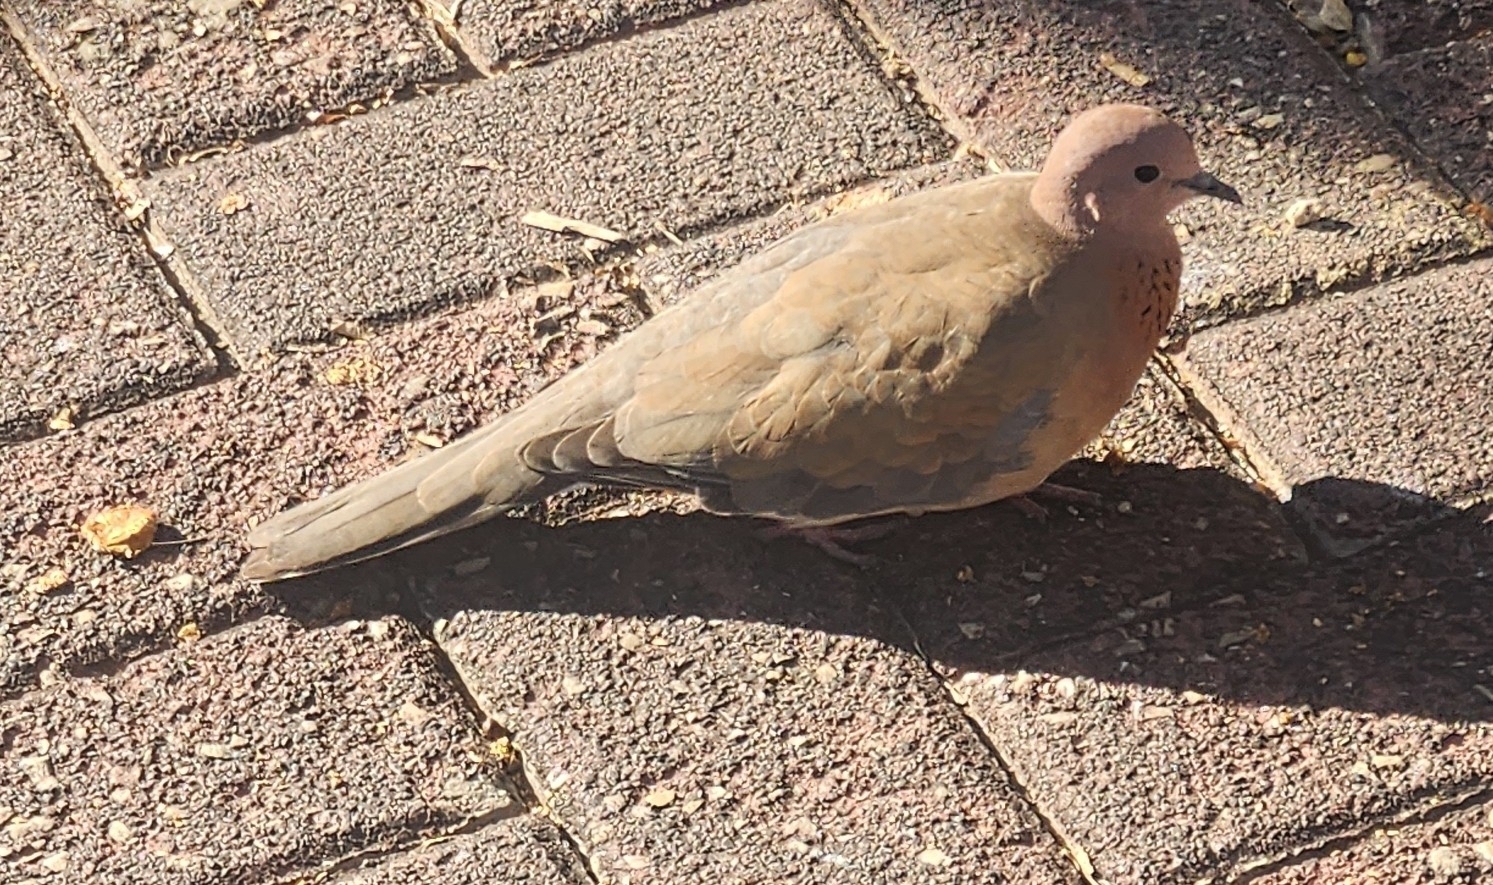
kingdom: Animalia
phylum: Chordata
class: Aves
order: Columbiformes
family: Columbidae
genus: Spilopelia
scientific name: Spilopelia senegalensis
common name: Laughing dove
